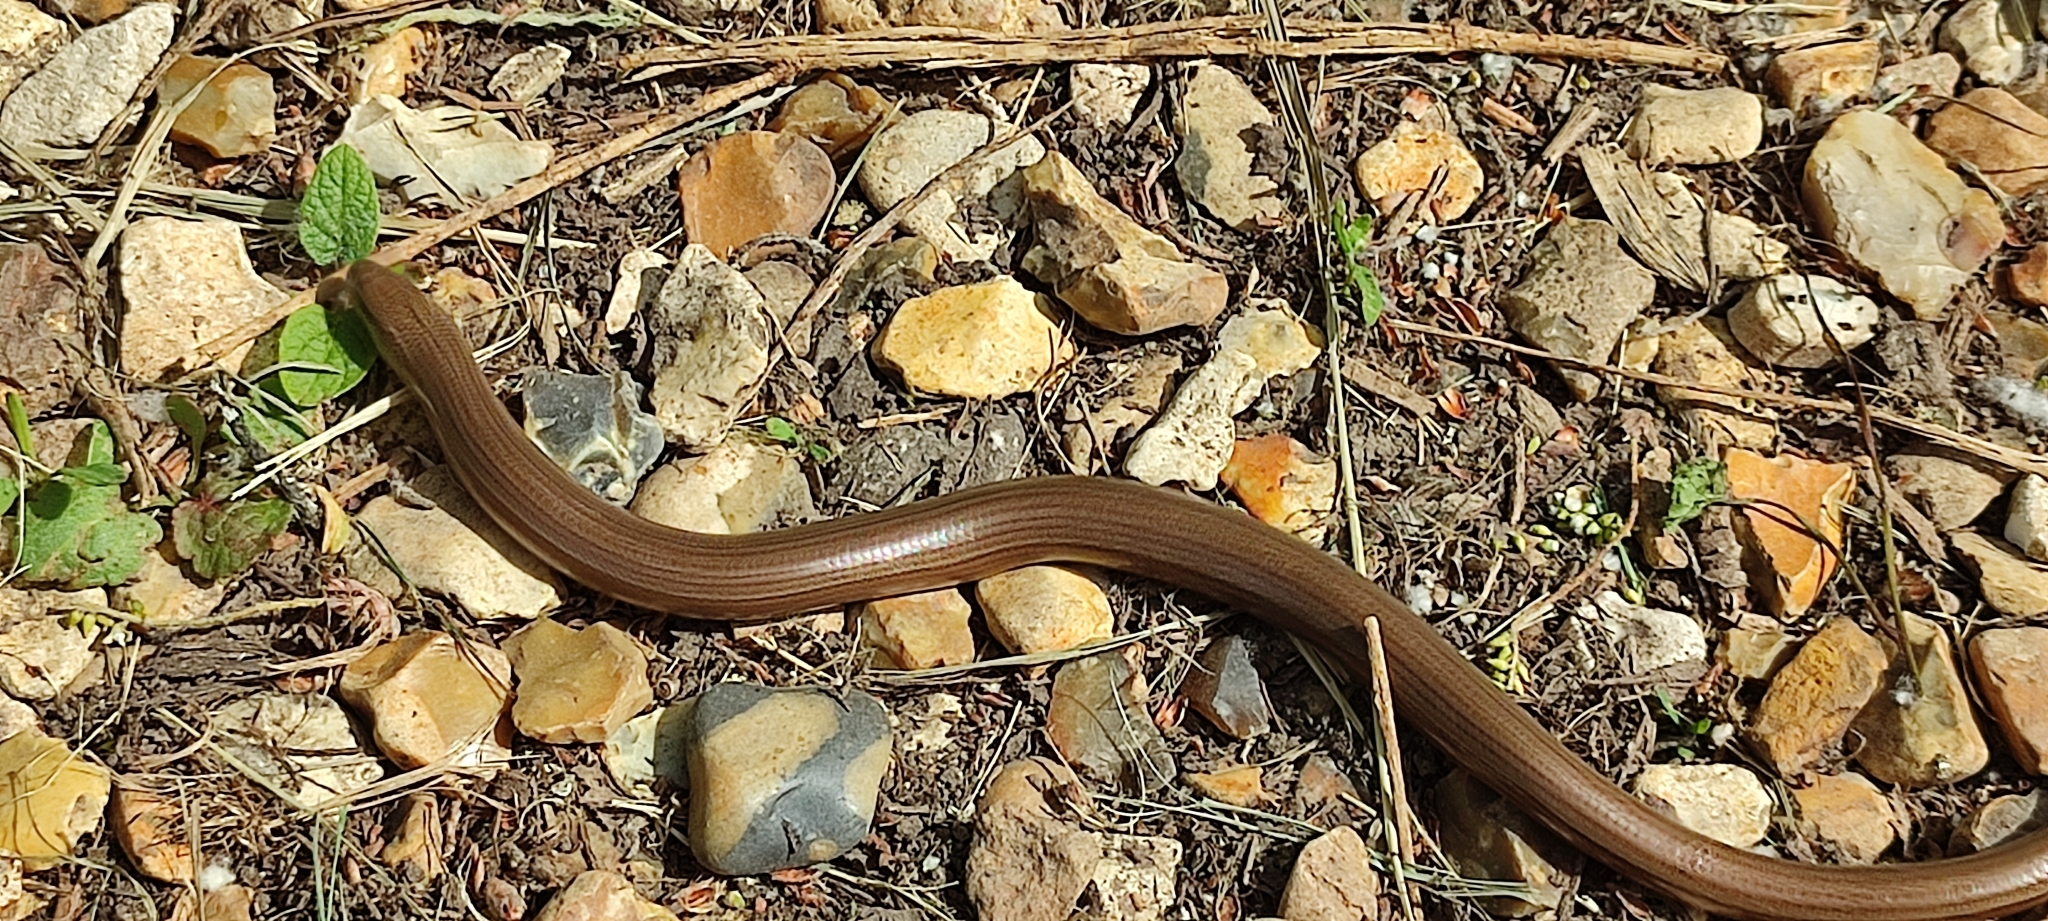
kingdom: Animalia
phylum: Chordata
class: Squamata
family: Anguidae
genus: Anguis
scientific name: Anguis fragilis
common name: Slow worm
